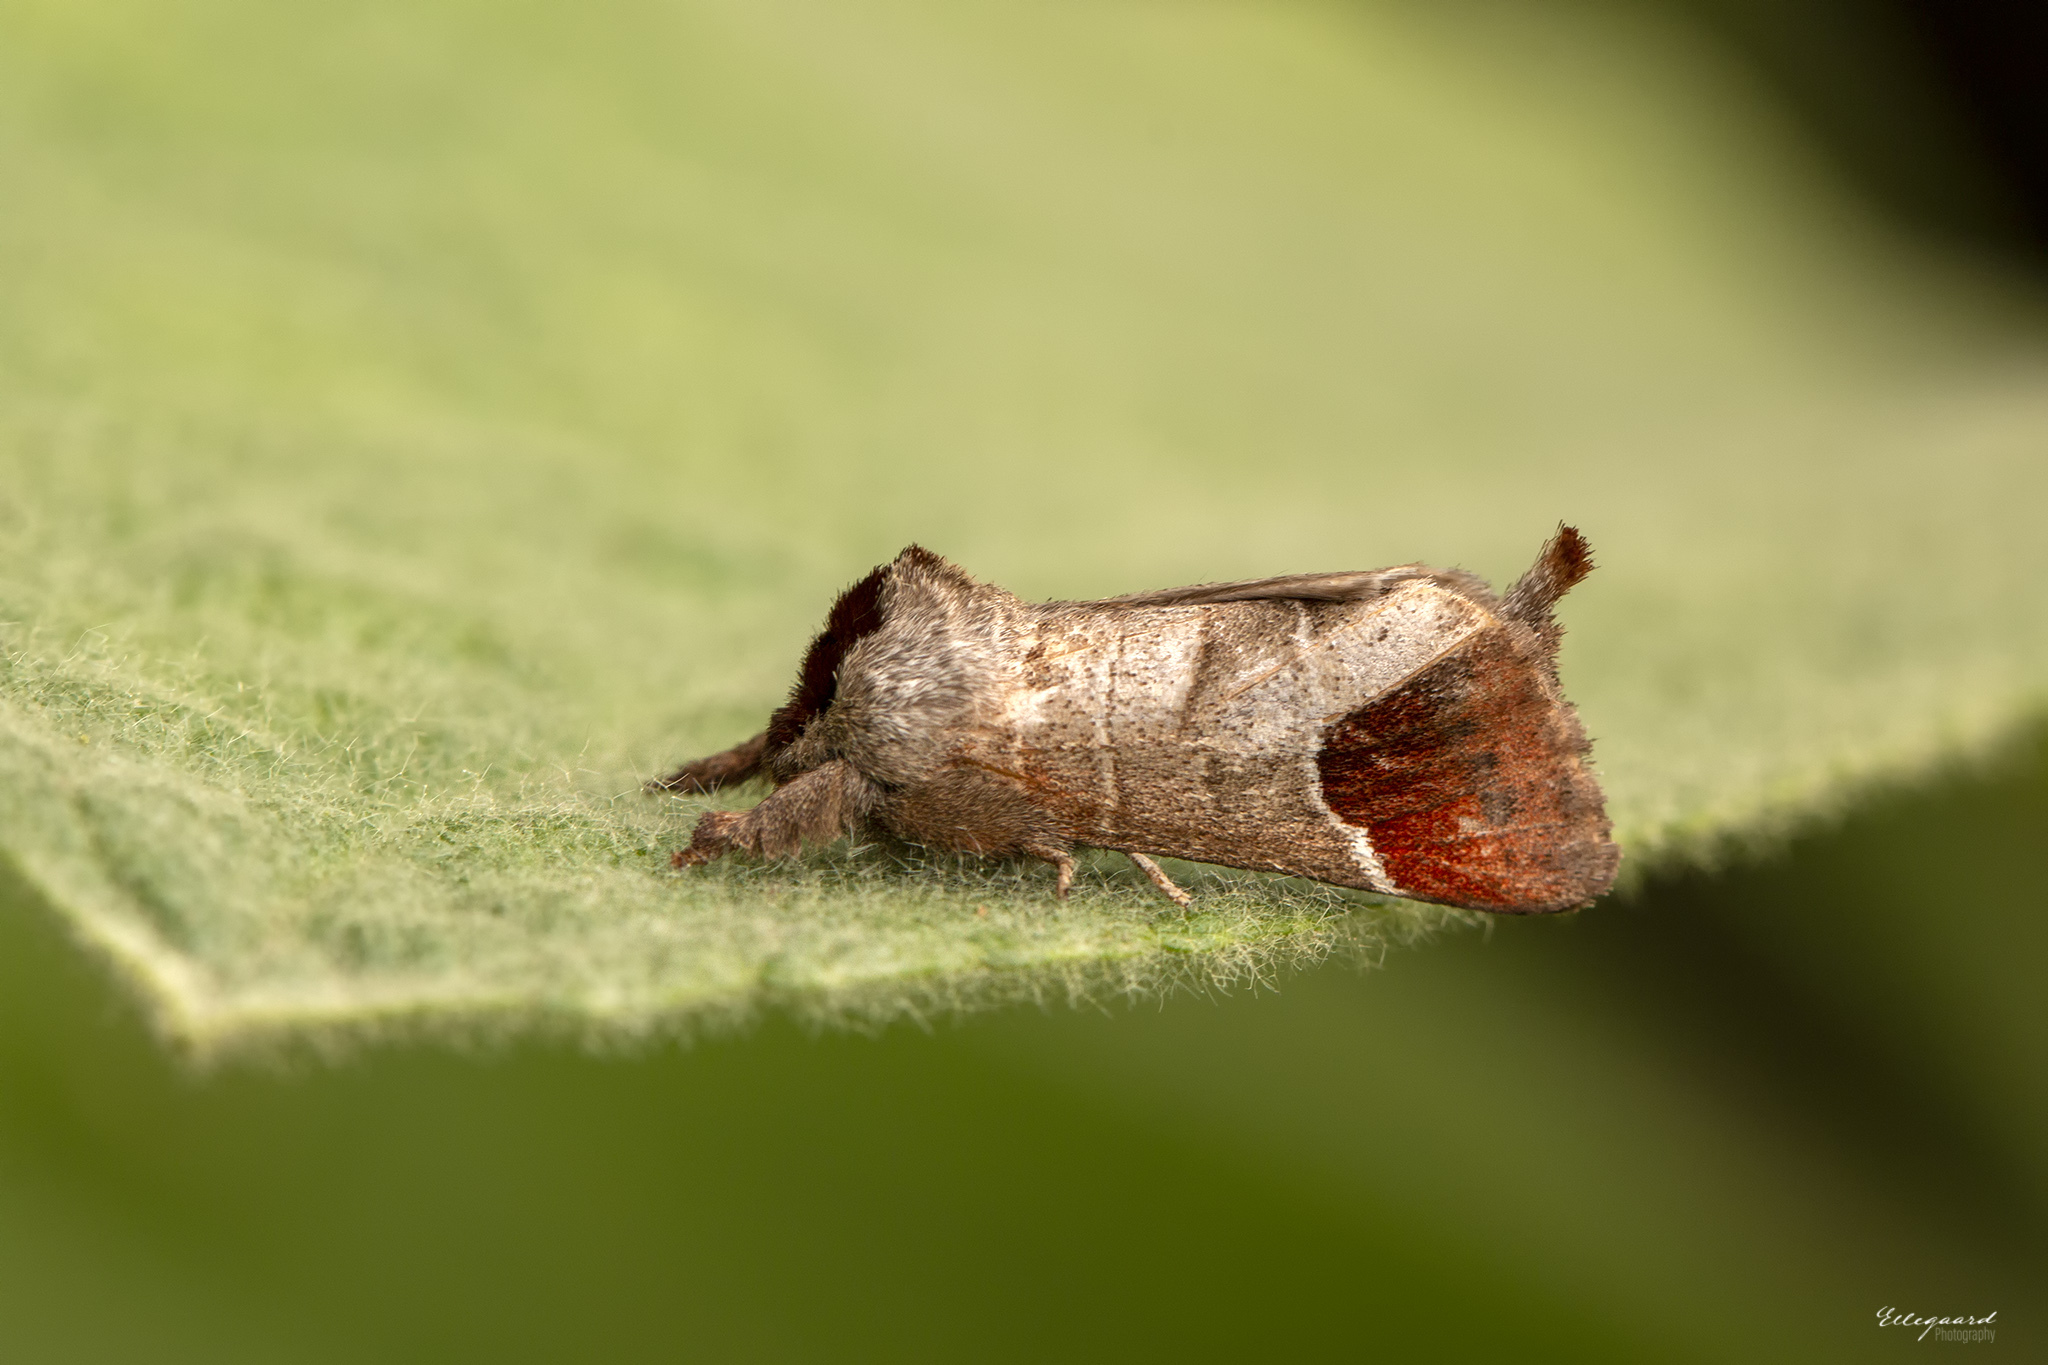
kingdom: Animalia
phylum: Arthropoda
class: Insecta
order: Lepidoptera
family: Notodontidae
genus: Clostera
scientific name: Clostera curtula
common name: Chocolate-tip
